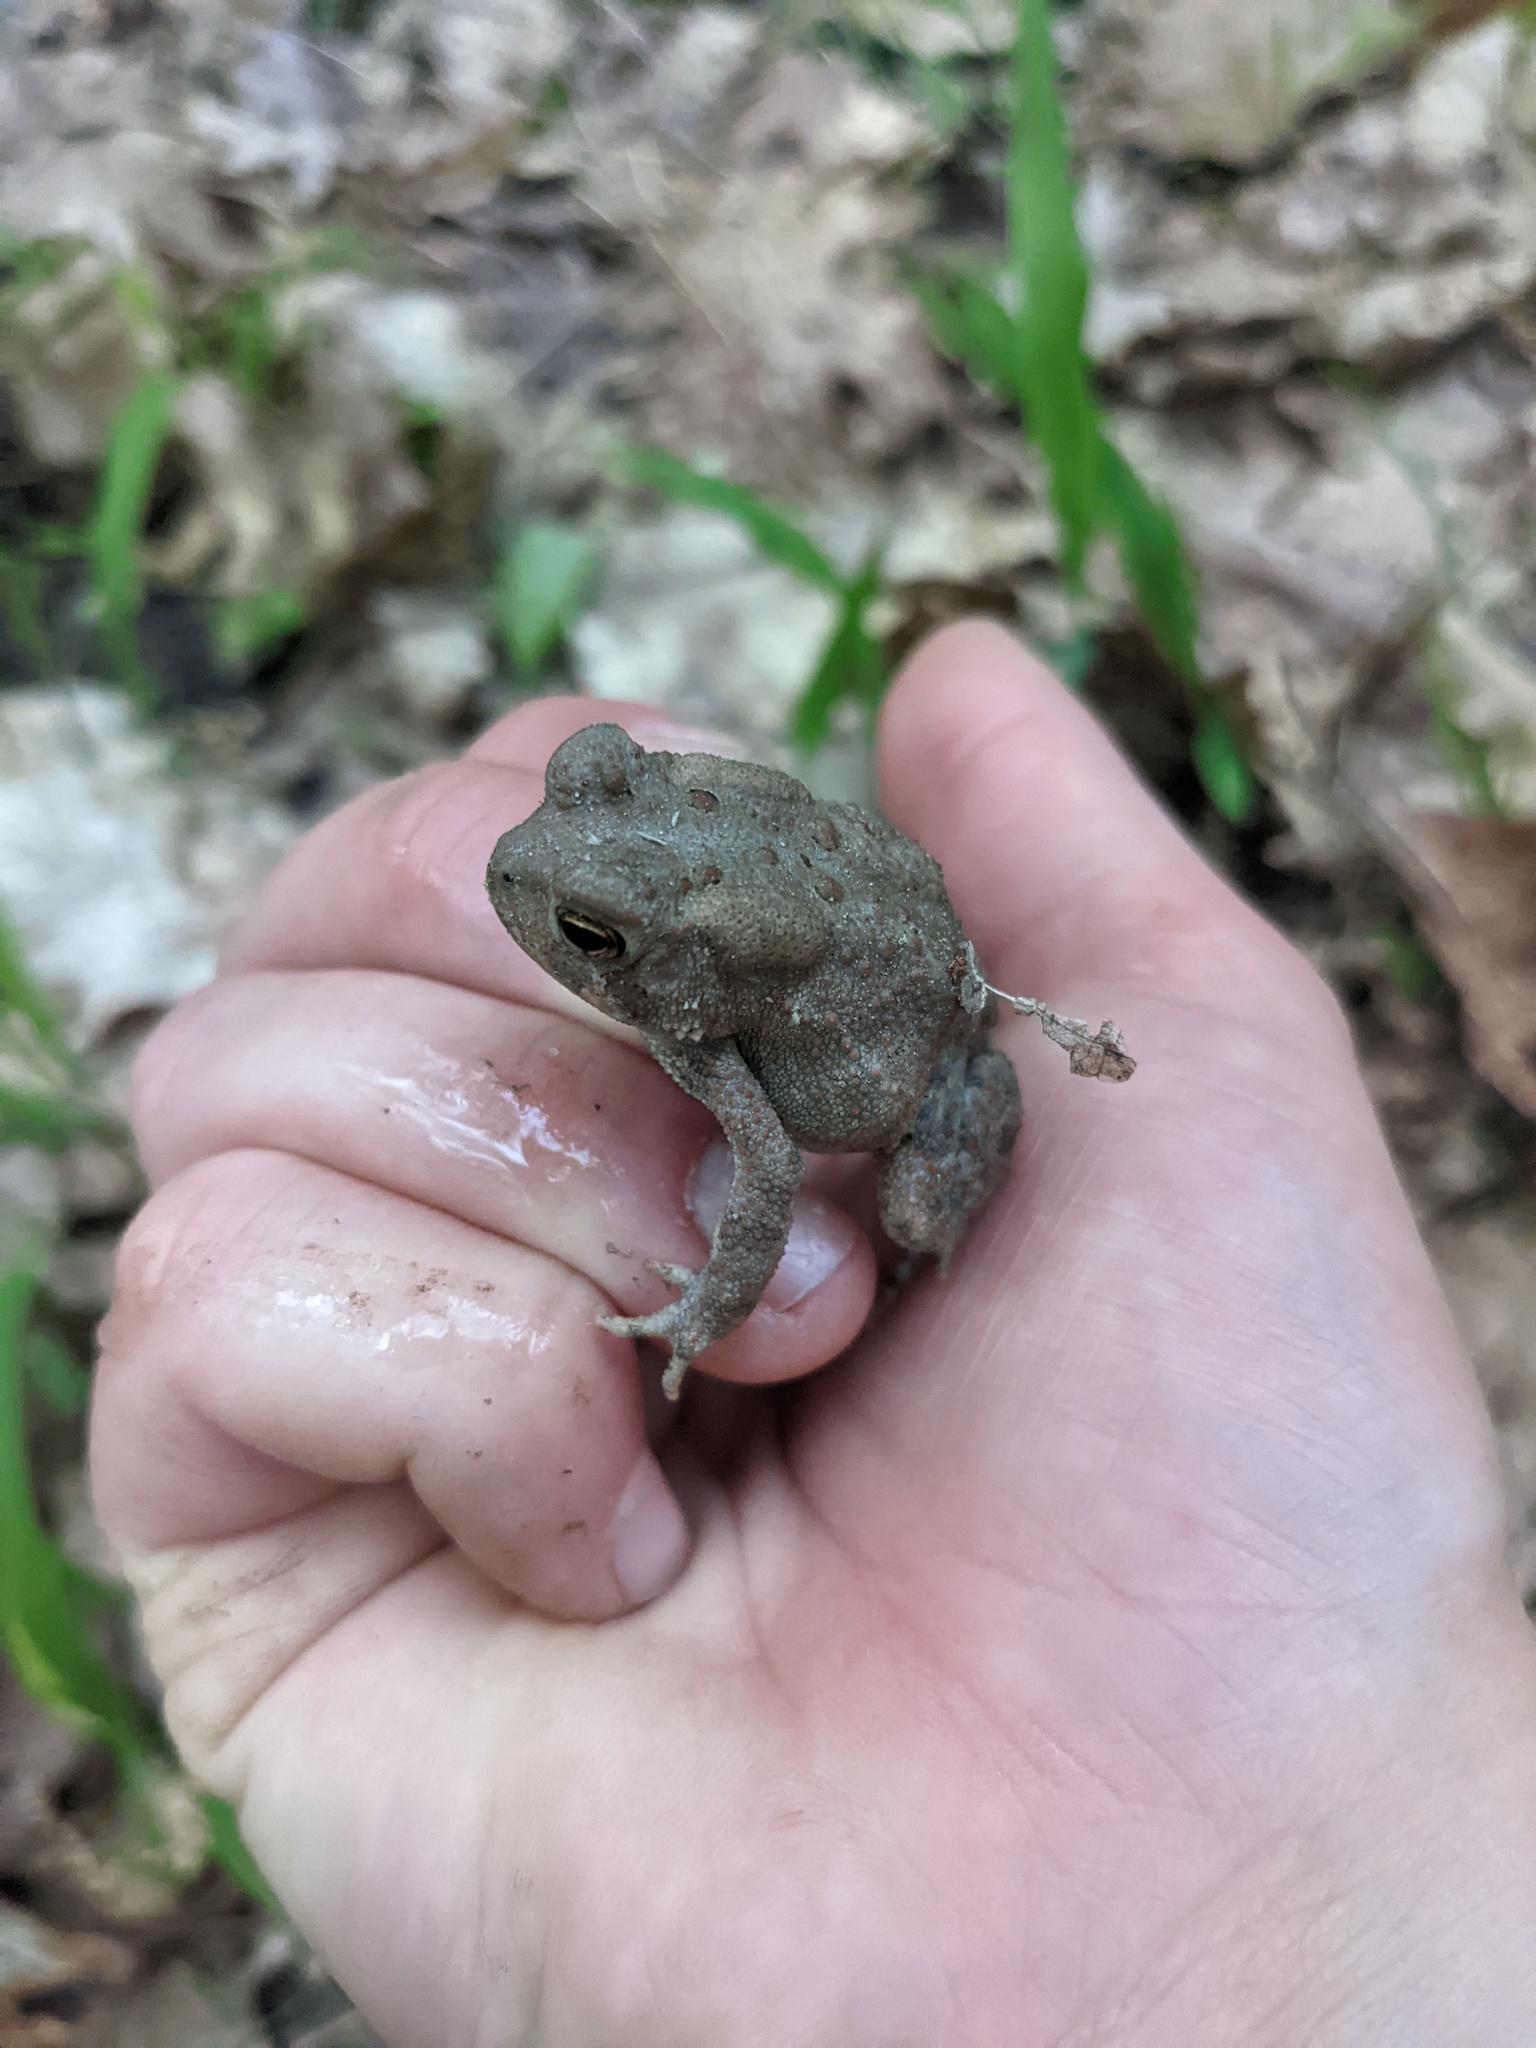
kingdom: Animalia
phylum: Chordata
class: Amphibia
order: Anura
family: Bufonidae
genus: Anaxyrus
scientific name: Anaxyrus americanus
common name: American toad
